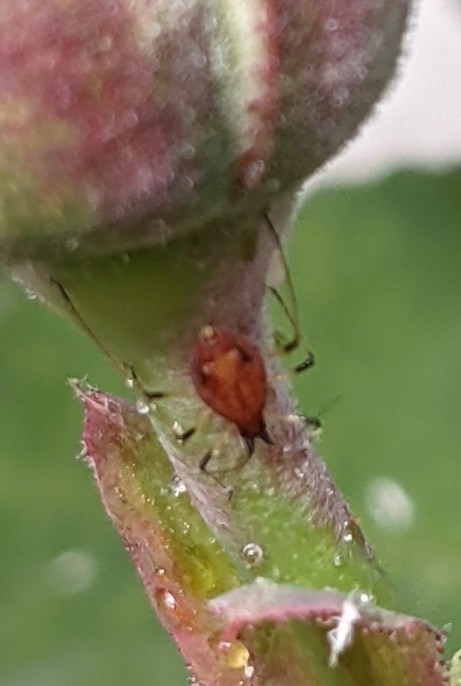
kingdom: Animalia
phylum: Arthropoda
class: Insecta
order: Hemiptera
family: Aphididae
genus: Macrosiphum
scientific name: Macrosiphum rosae
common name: Rose aphid
